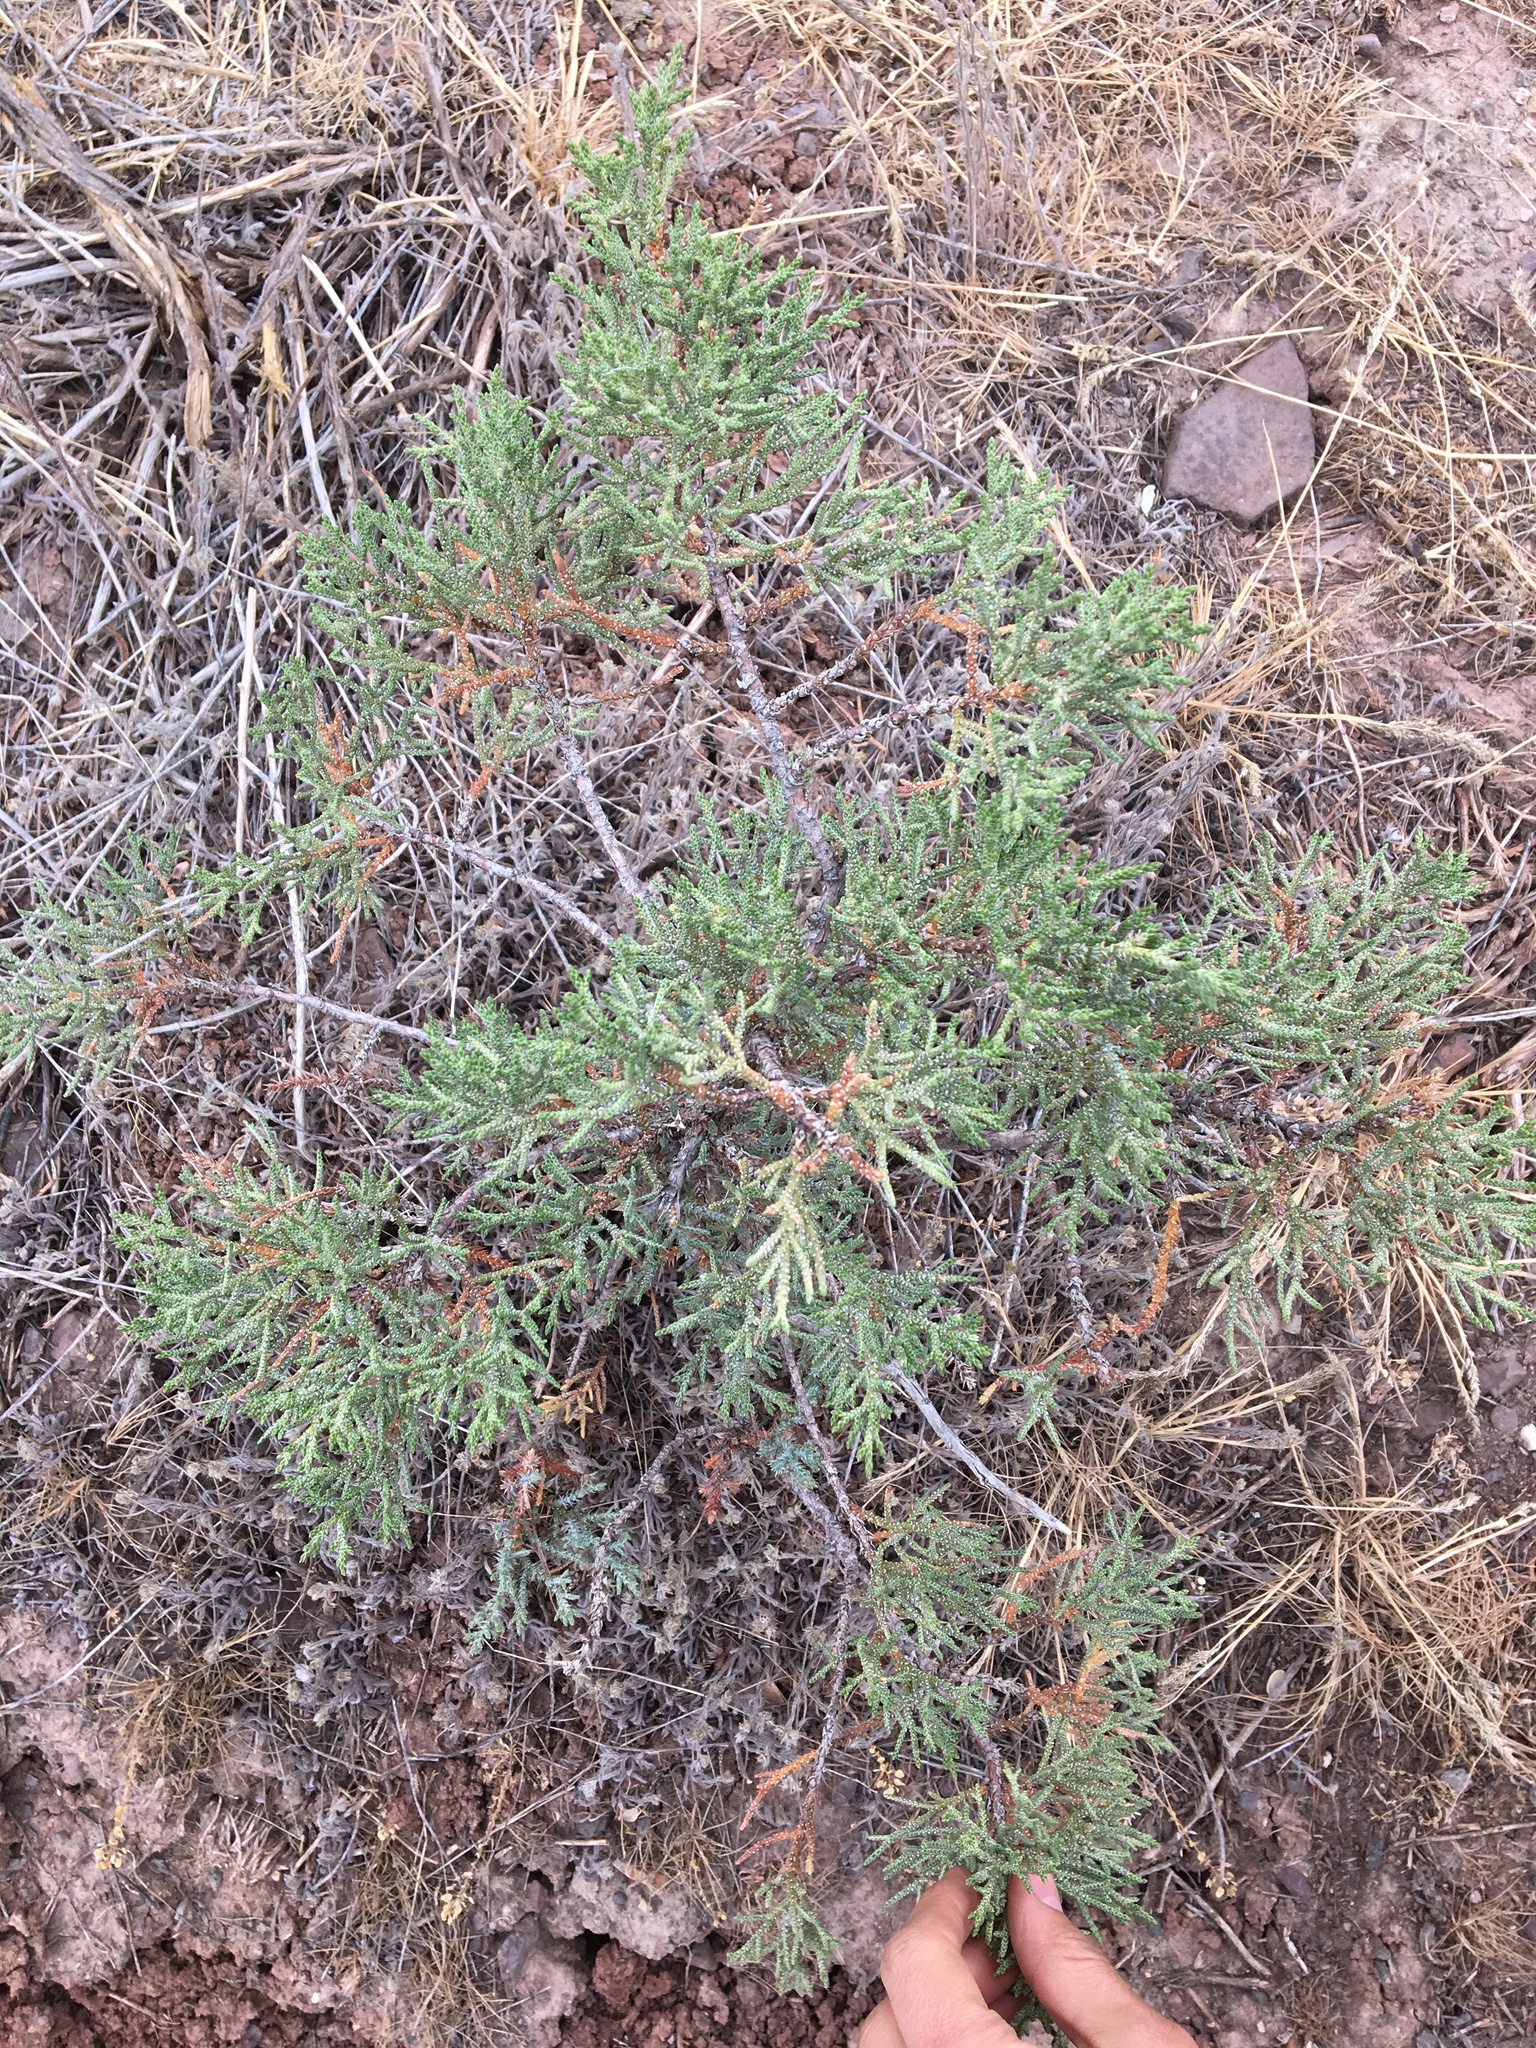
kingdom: Plantae
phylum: Tracheophyta
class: Pinopsida
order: Pinales
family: Cupressaceae
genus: Juniperus
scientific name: Juniperus occidentalis
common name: Western juniper
